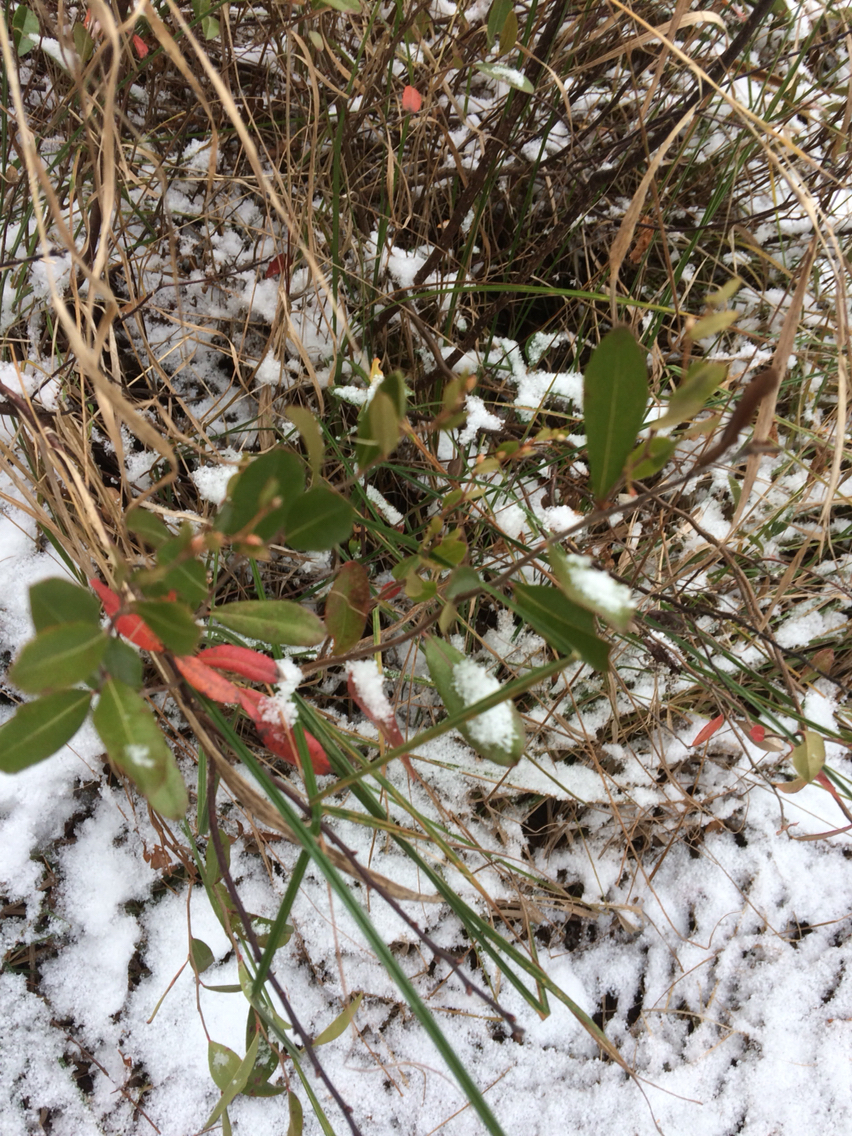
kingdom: Plantae
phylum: Tracheophyta
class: Magnoliopsida
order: Ericales
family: Ericaceae
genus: Chamaedaphne
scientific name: Chamaedaphne calyculata
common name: Leatherleaf
